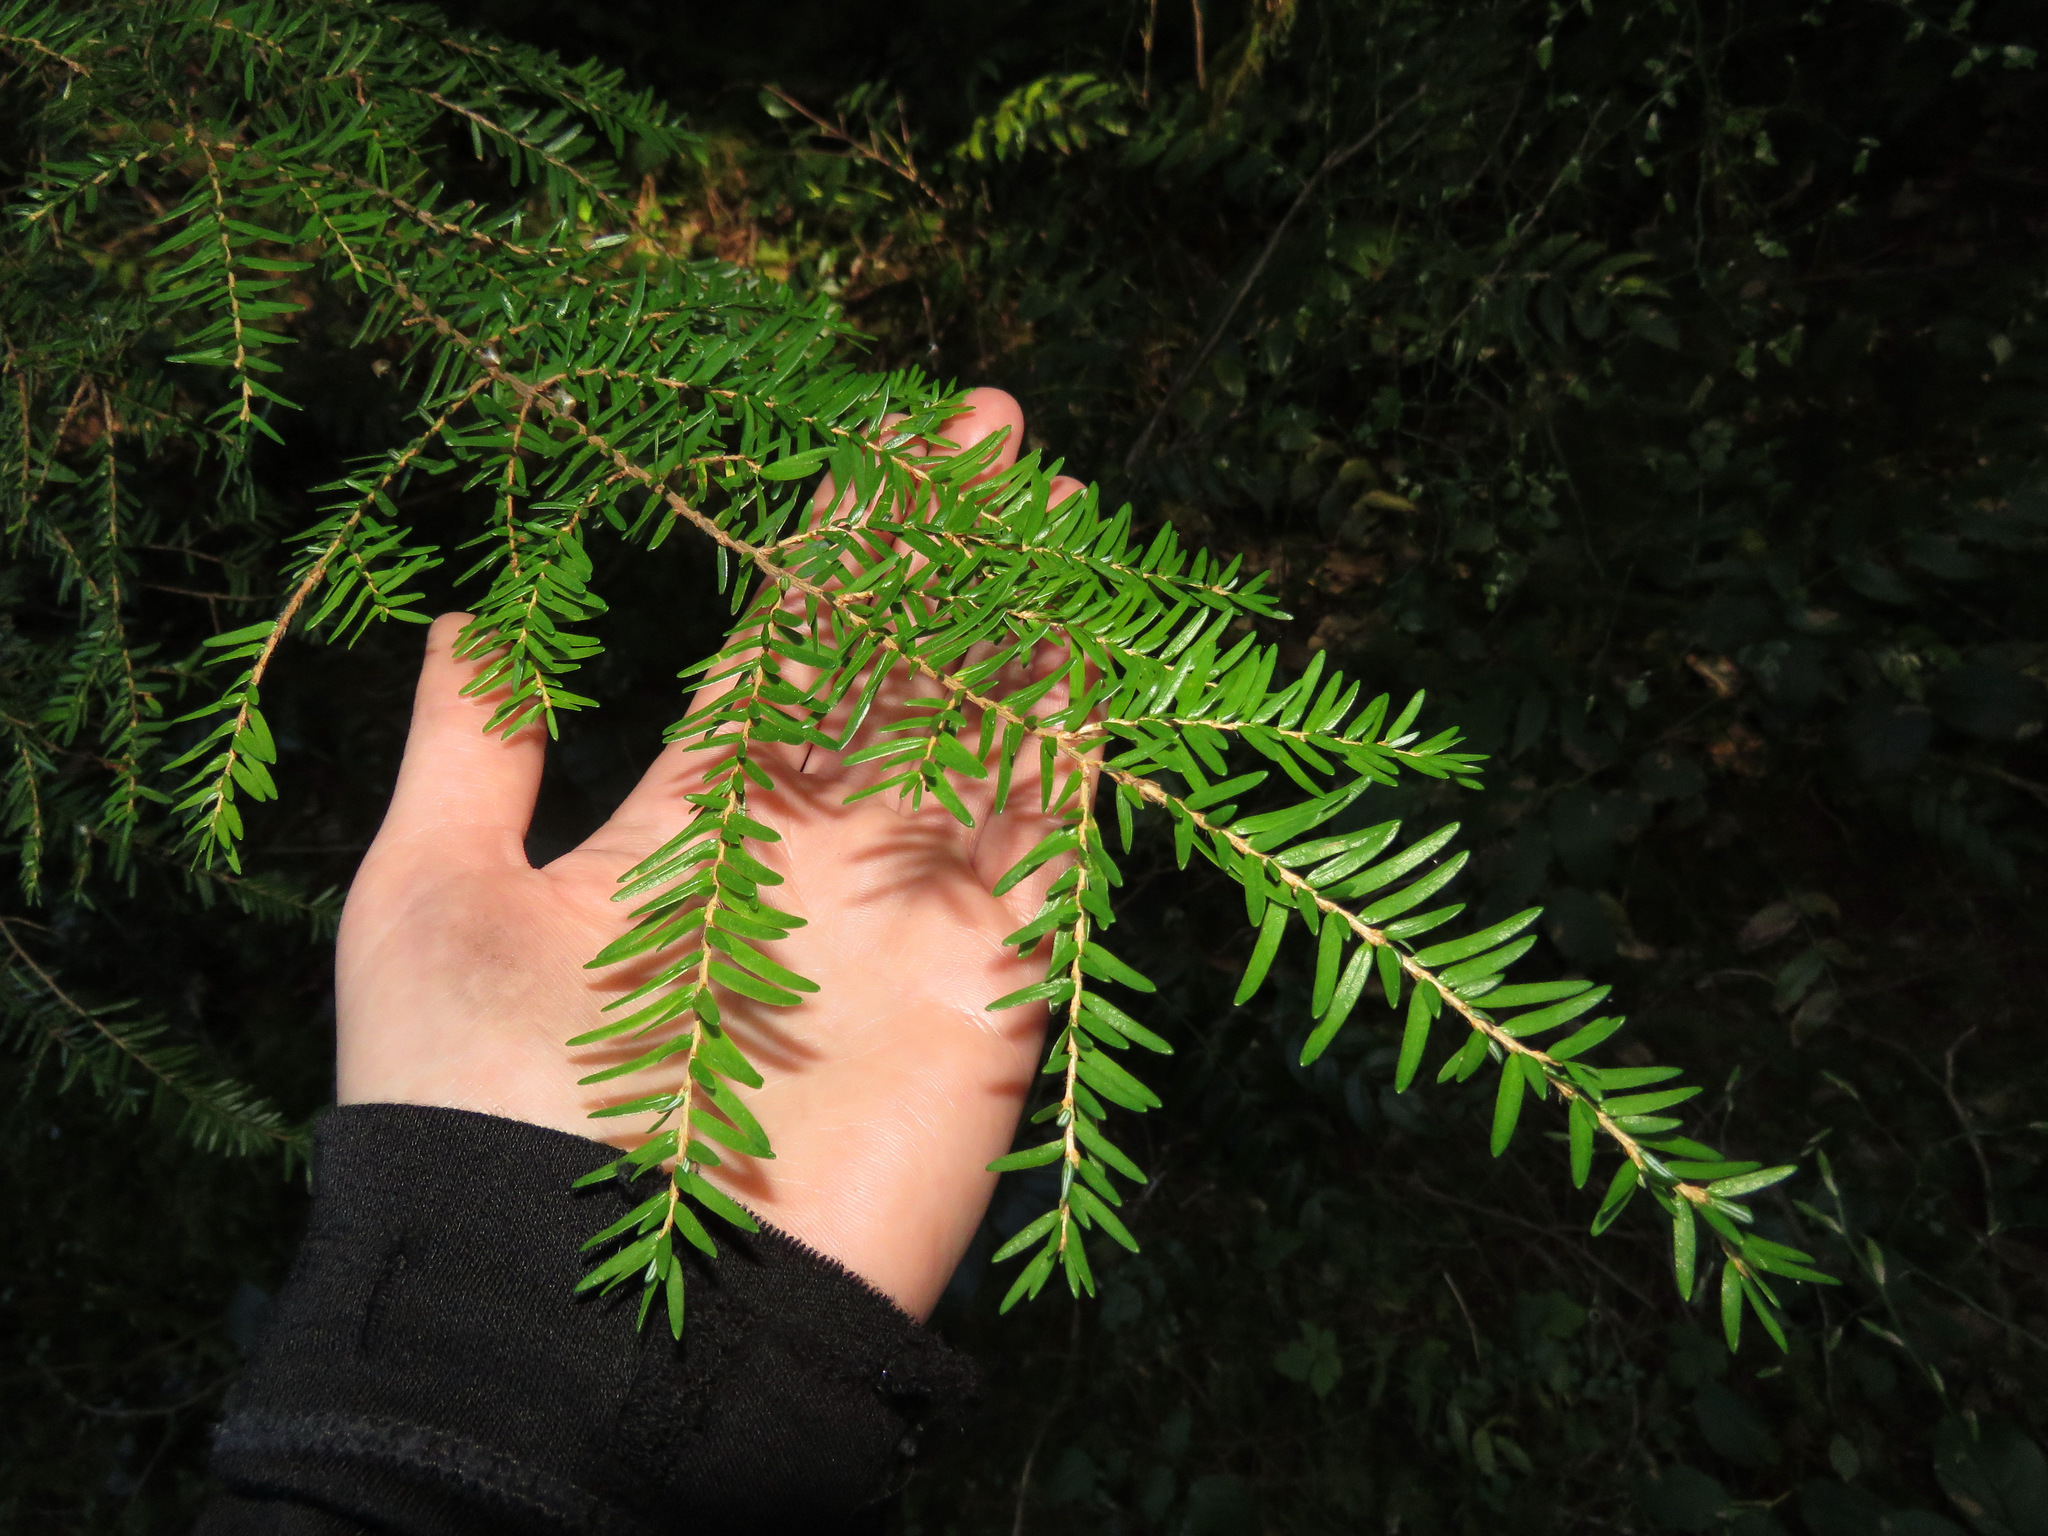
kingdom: Plantae
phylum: Tracheophyta
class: Pinopsida
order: Pinales
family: Pinaceae
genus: Tsuga
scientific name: Tsuga heterophylla
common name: Western hemlock
